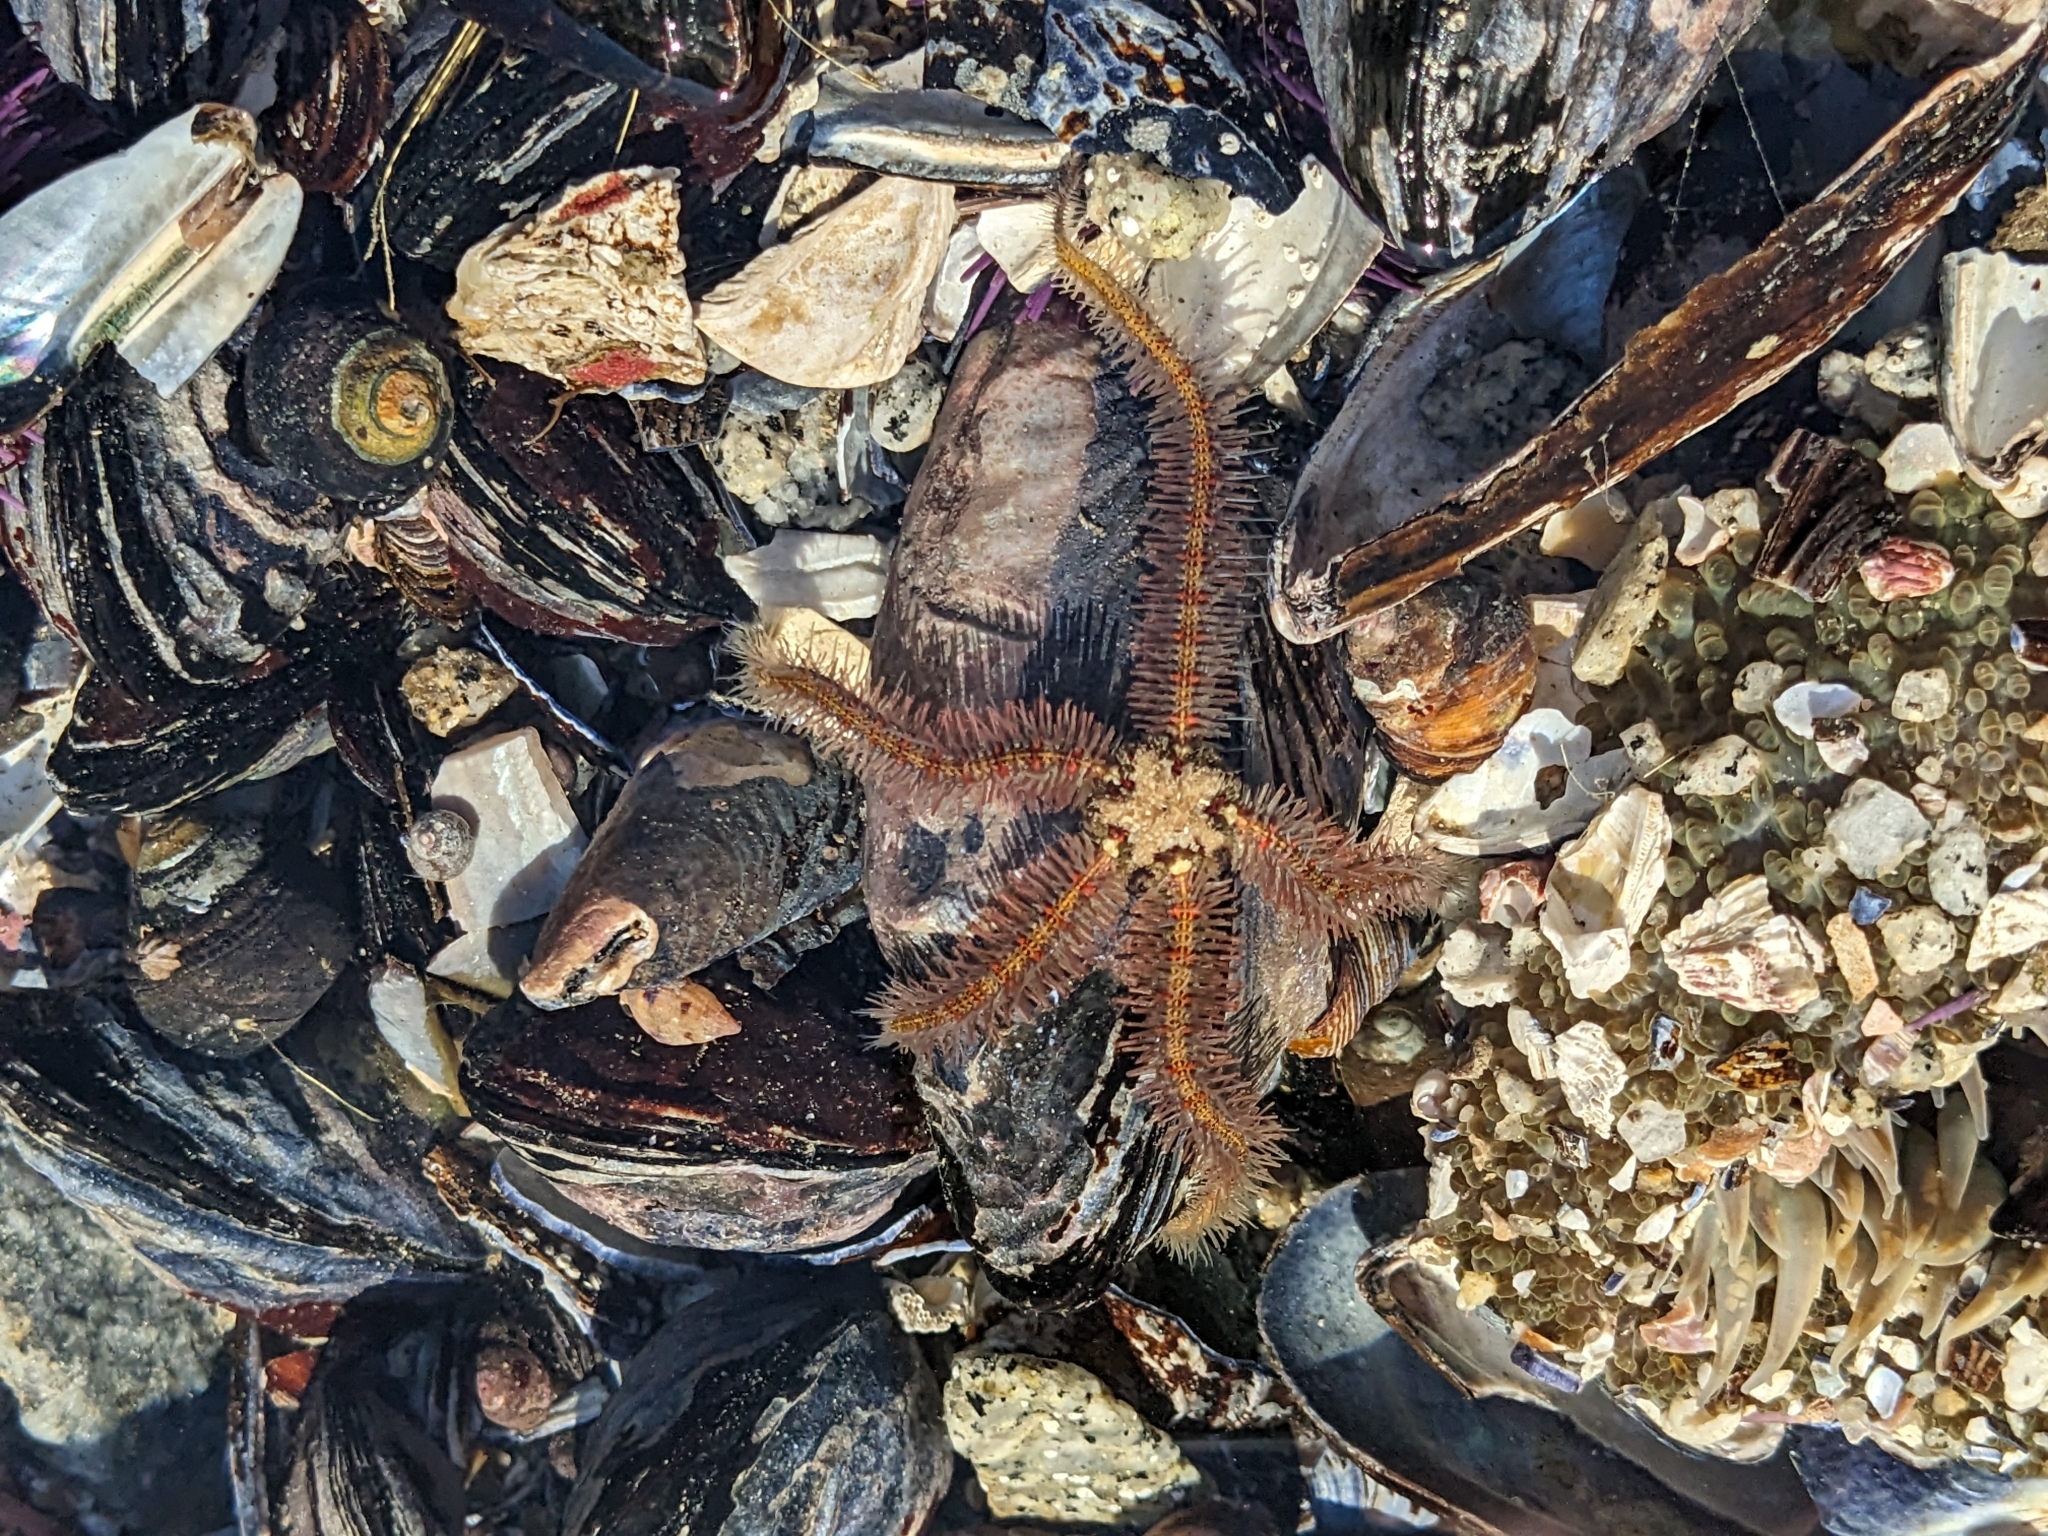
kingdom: Animalia
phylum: Echinodermata
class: Ophiuroidea
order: Amphilepidida
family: Ophiotrichidae
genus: Ophiothrix
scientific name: Ophiothrix spiculata
